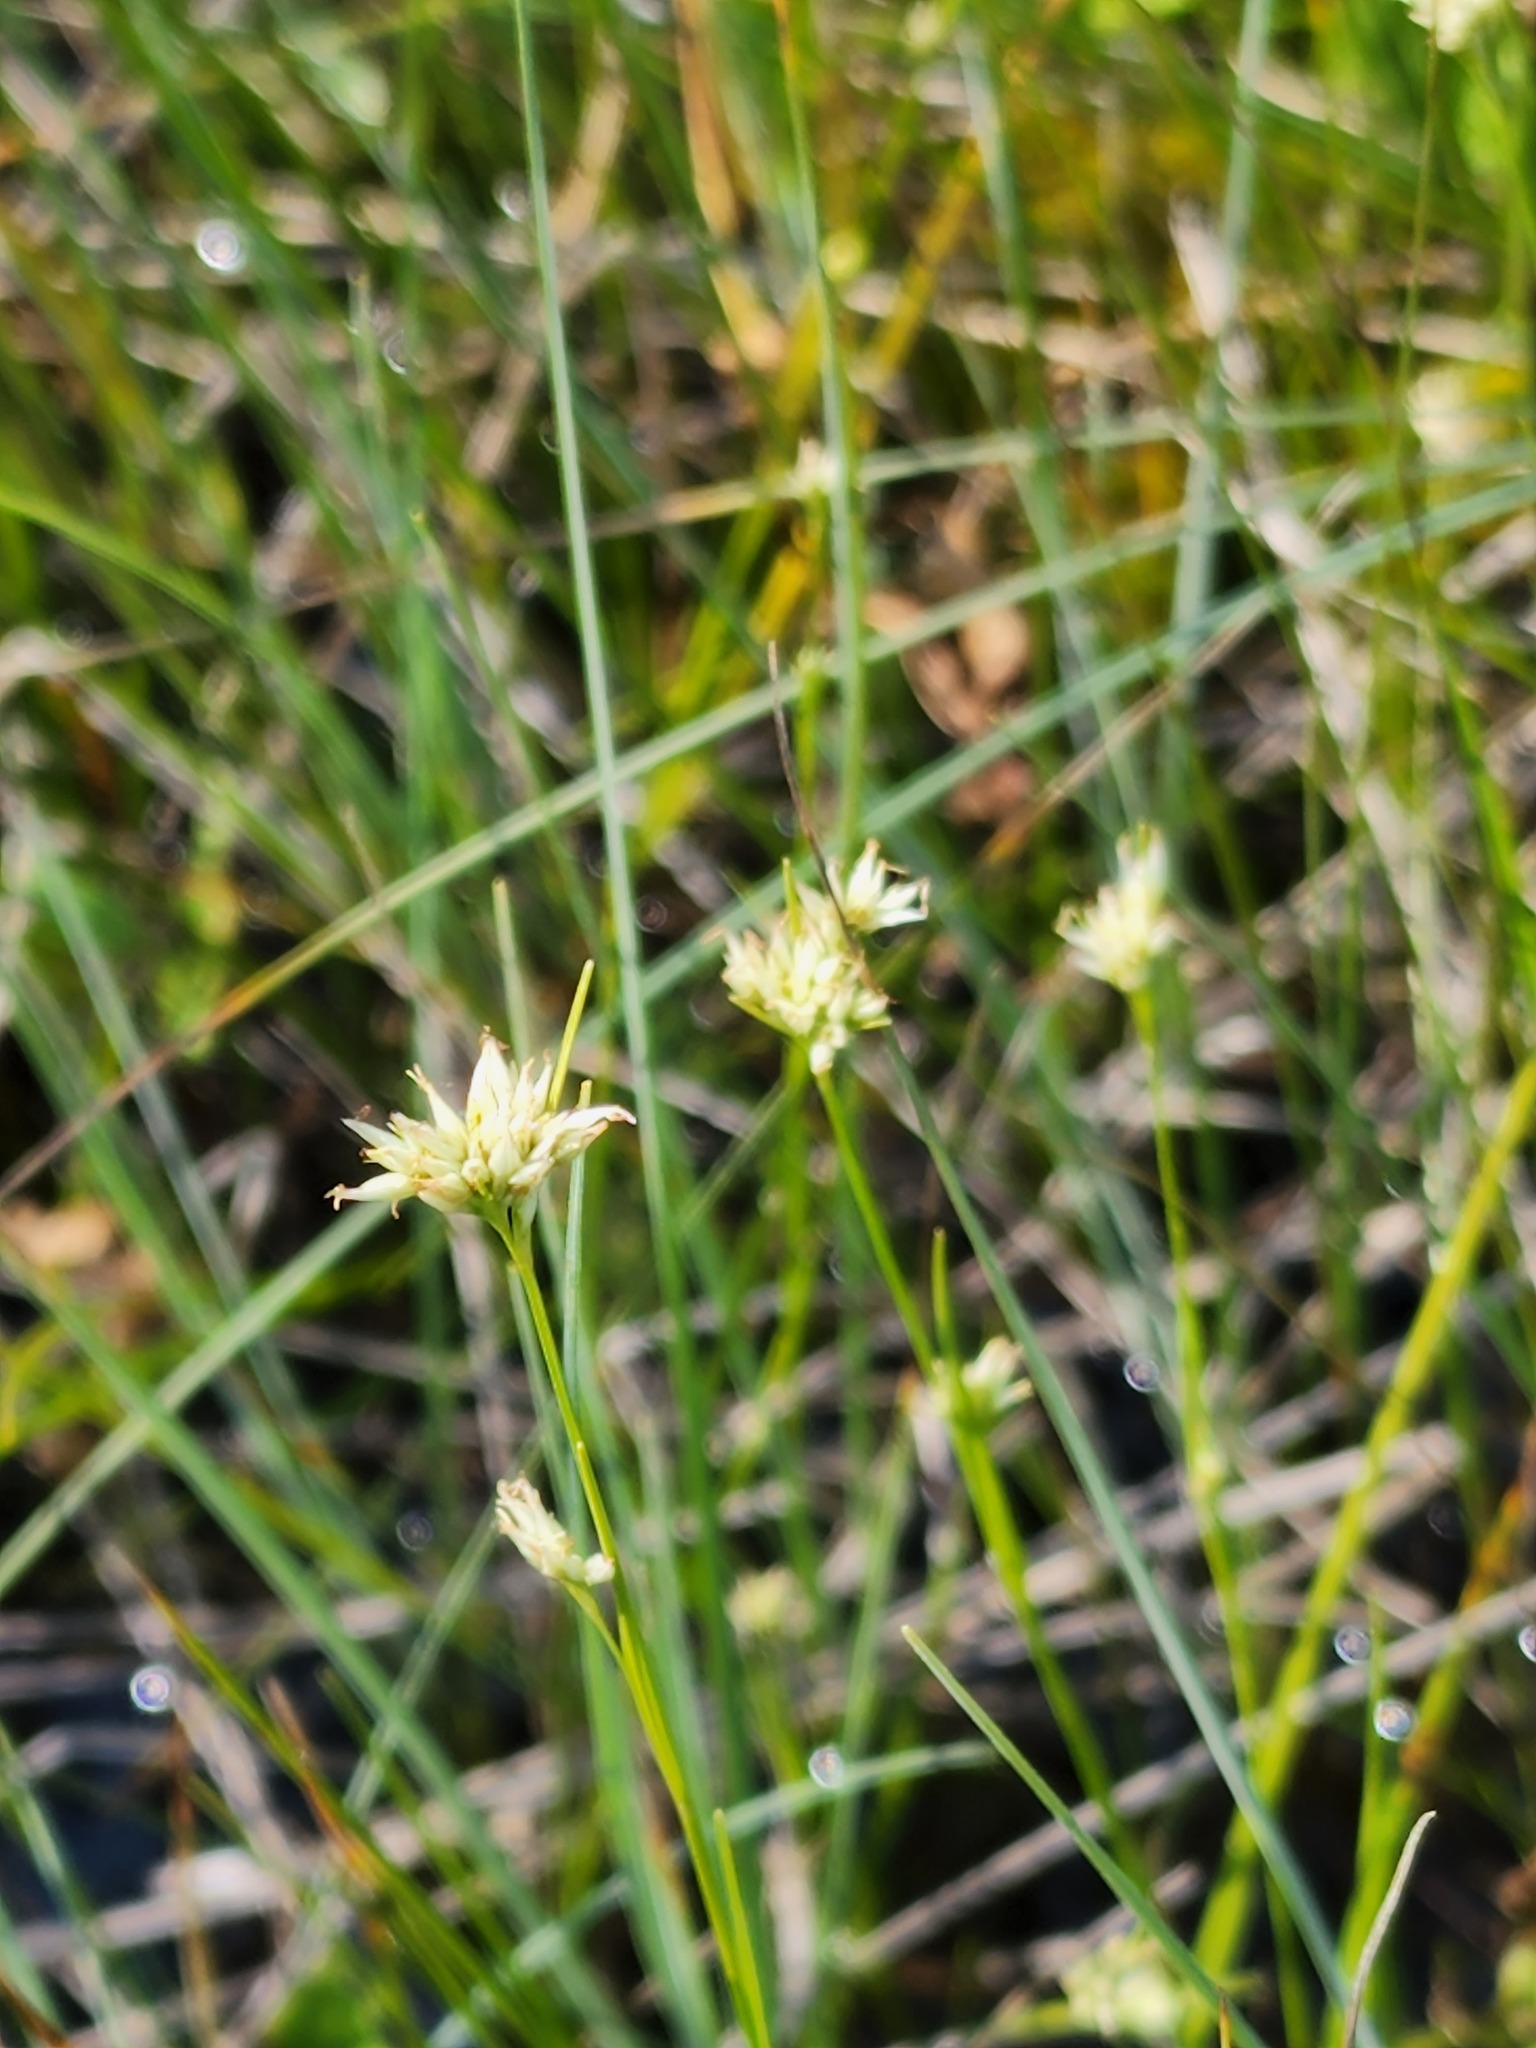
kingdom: Plantae
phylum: Tracheophyta
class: Liliopsida
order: Poales
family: Cyperaceae
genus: Rhynchospora
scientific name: Rhynchospora alba
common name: White beak-sedge
